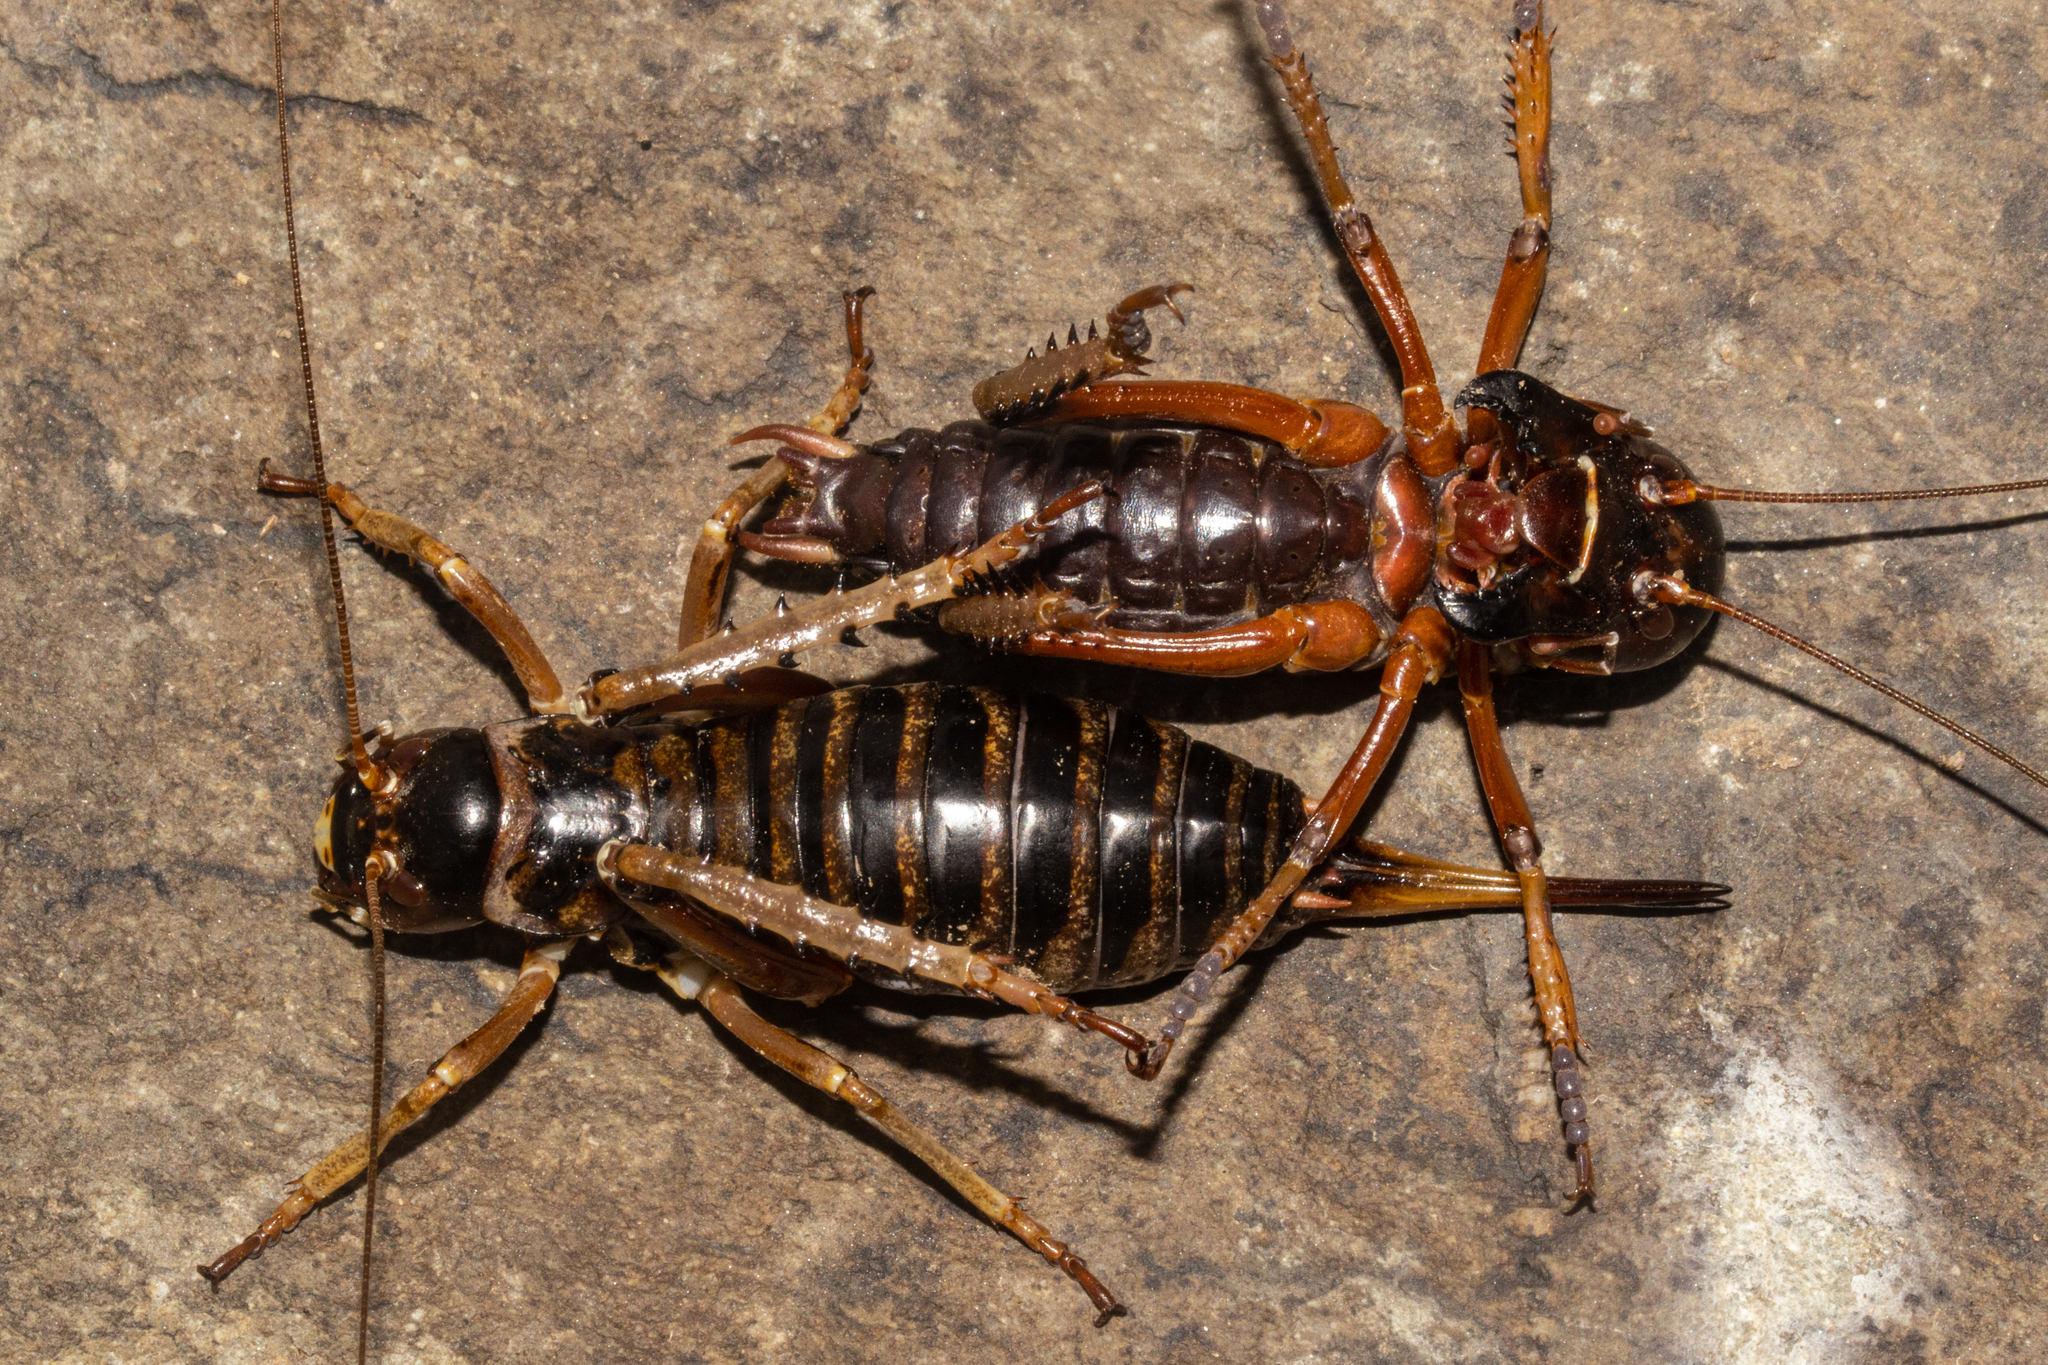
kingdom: Animalia
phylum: Arthropoda
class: Insecta
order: Orthoptera
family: Anostostomatidae
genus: Hemideina
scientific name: Hemideina maori
